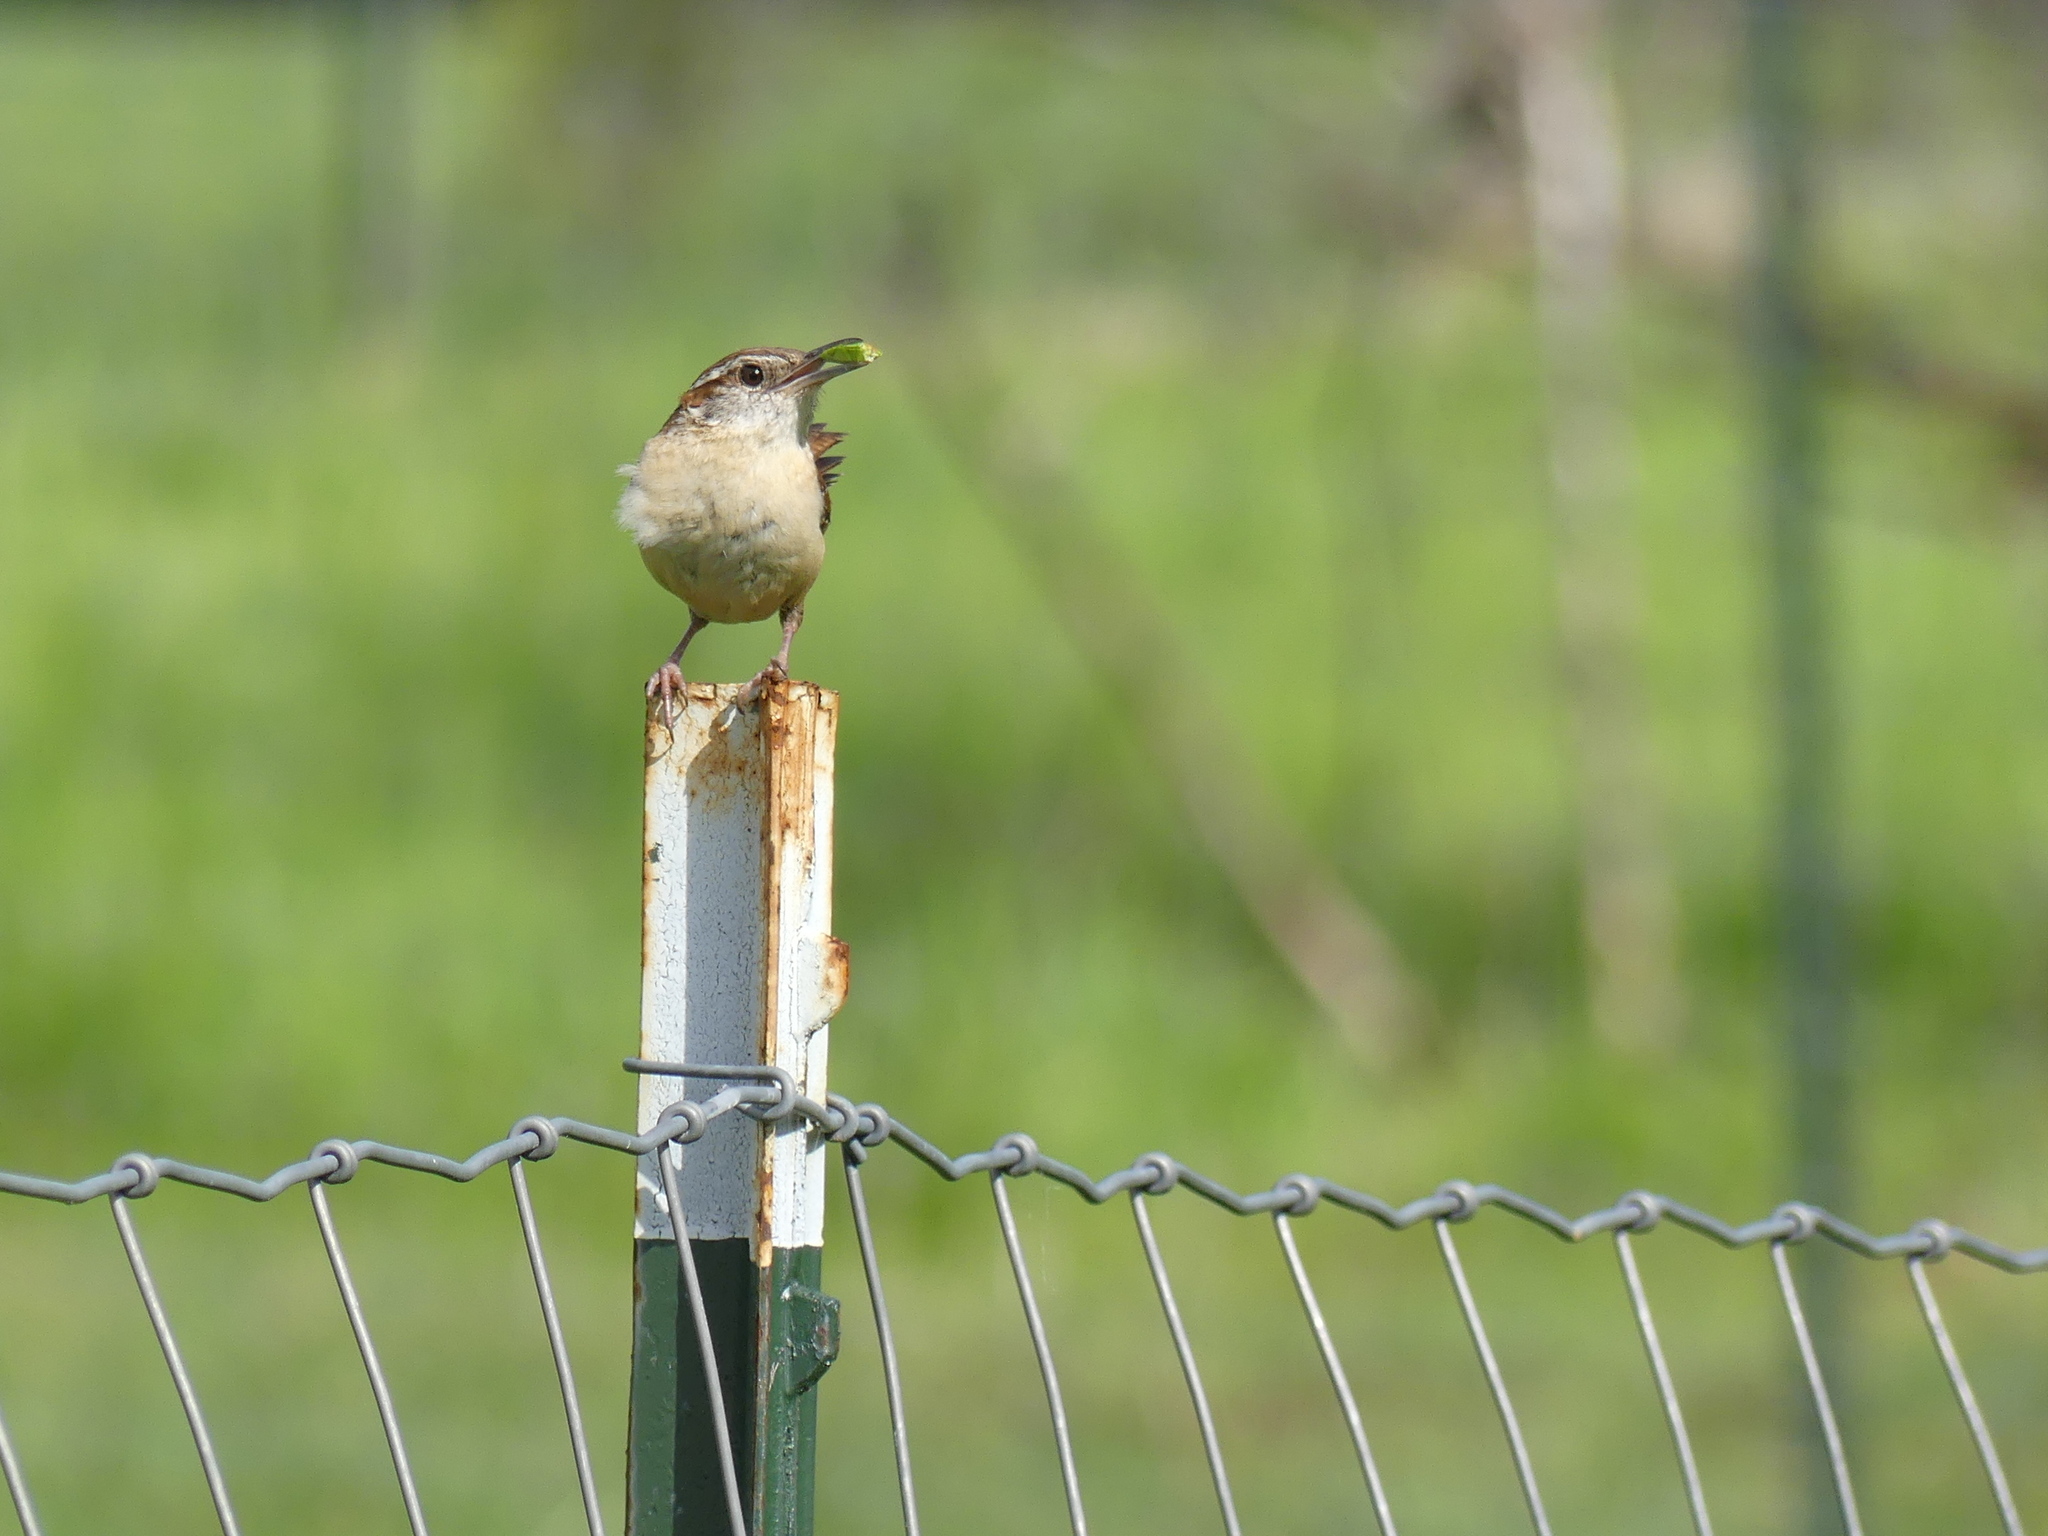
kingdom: Animalia
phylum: Chordata
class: Aves
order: Passeriformes
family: Troglodytidae
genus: Thryothorus
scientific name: Thryothorus ludovicianus
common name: Carolina wren
